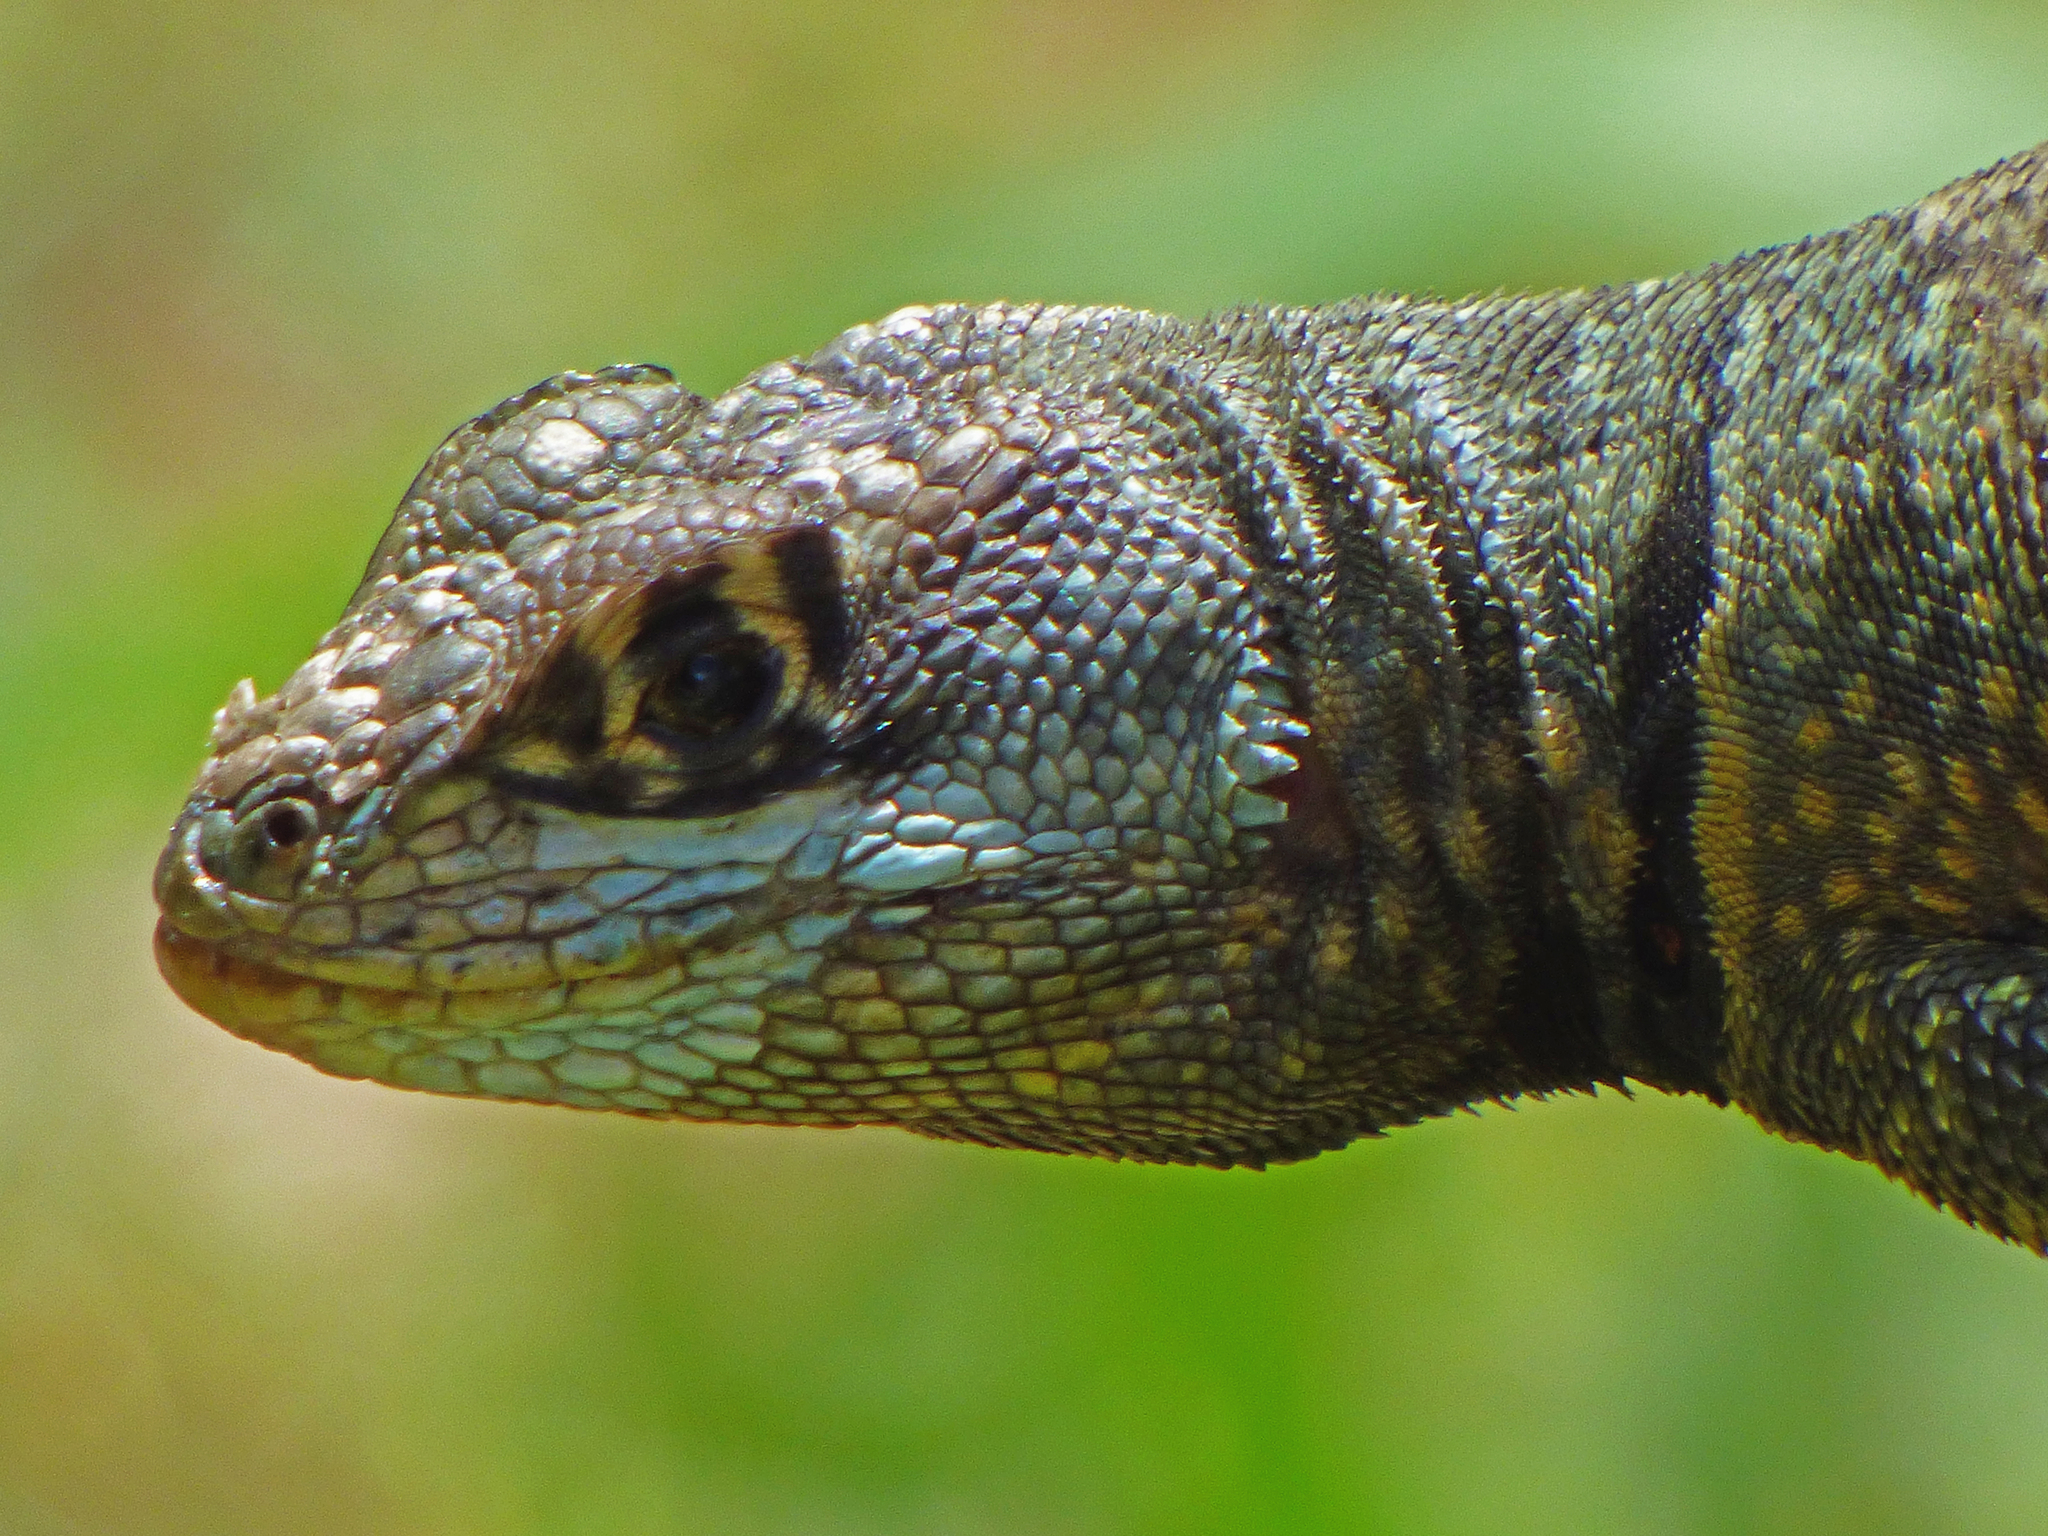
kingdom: Animalia
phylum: Chordata
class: Squamata
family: Tropiduridae
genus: Tropidurus
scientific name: Tropidurus imbituba
